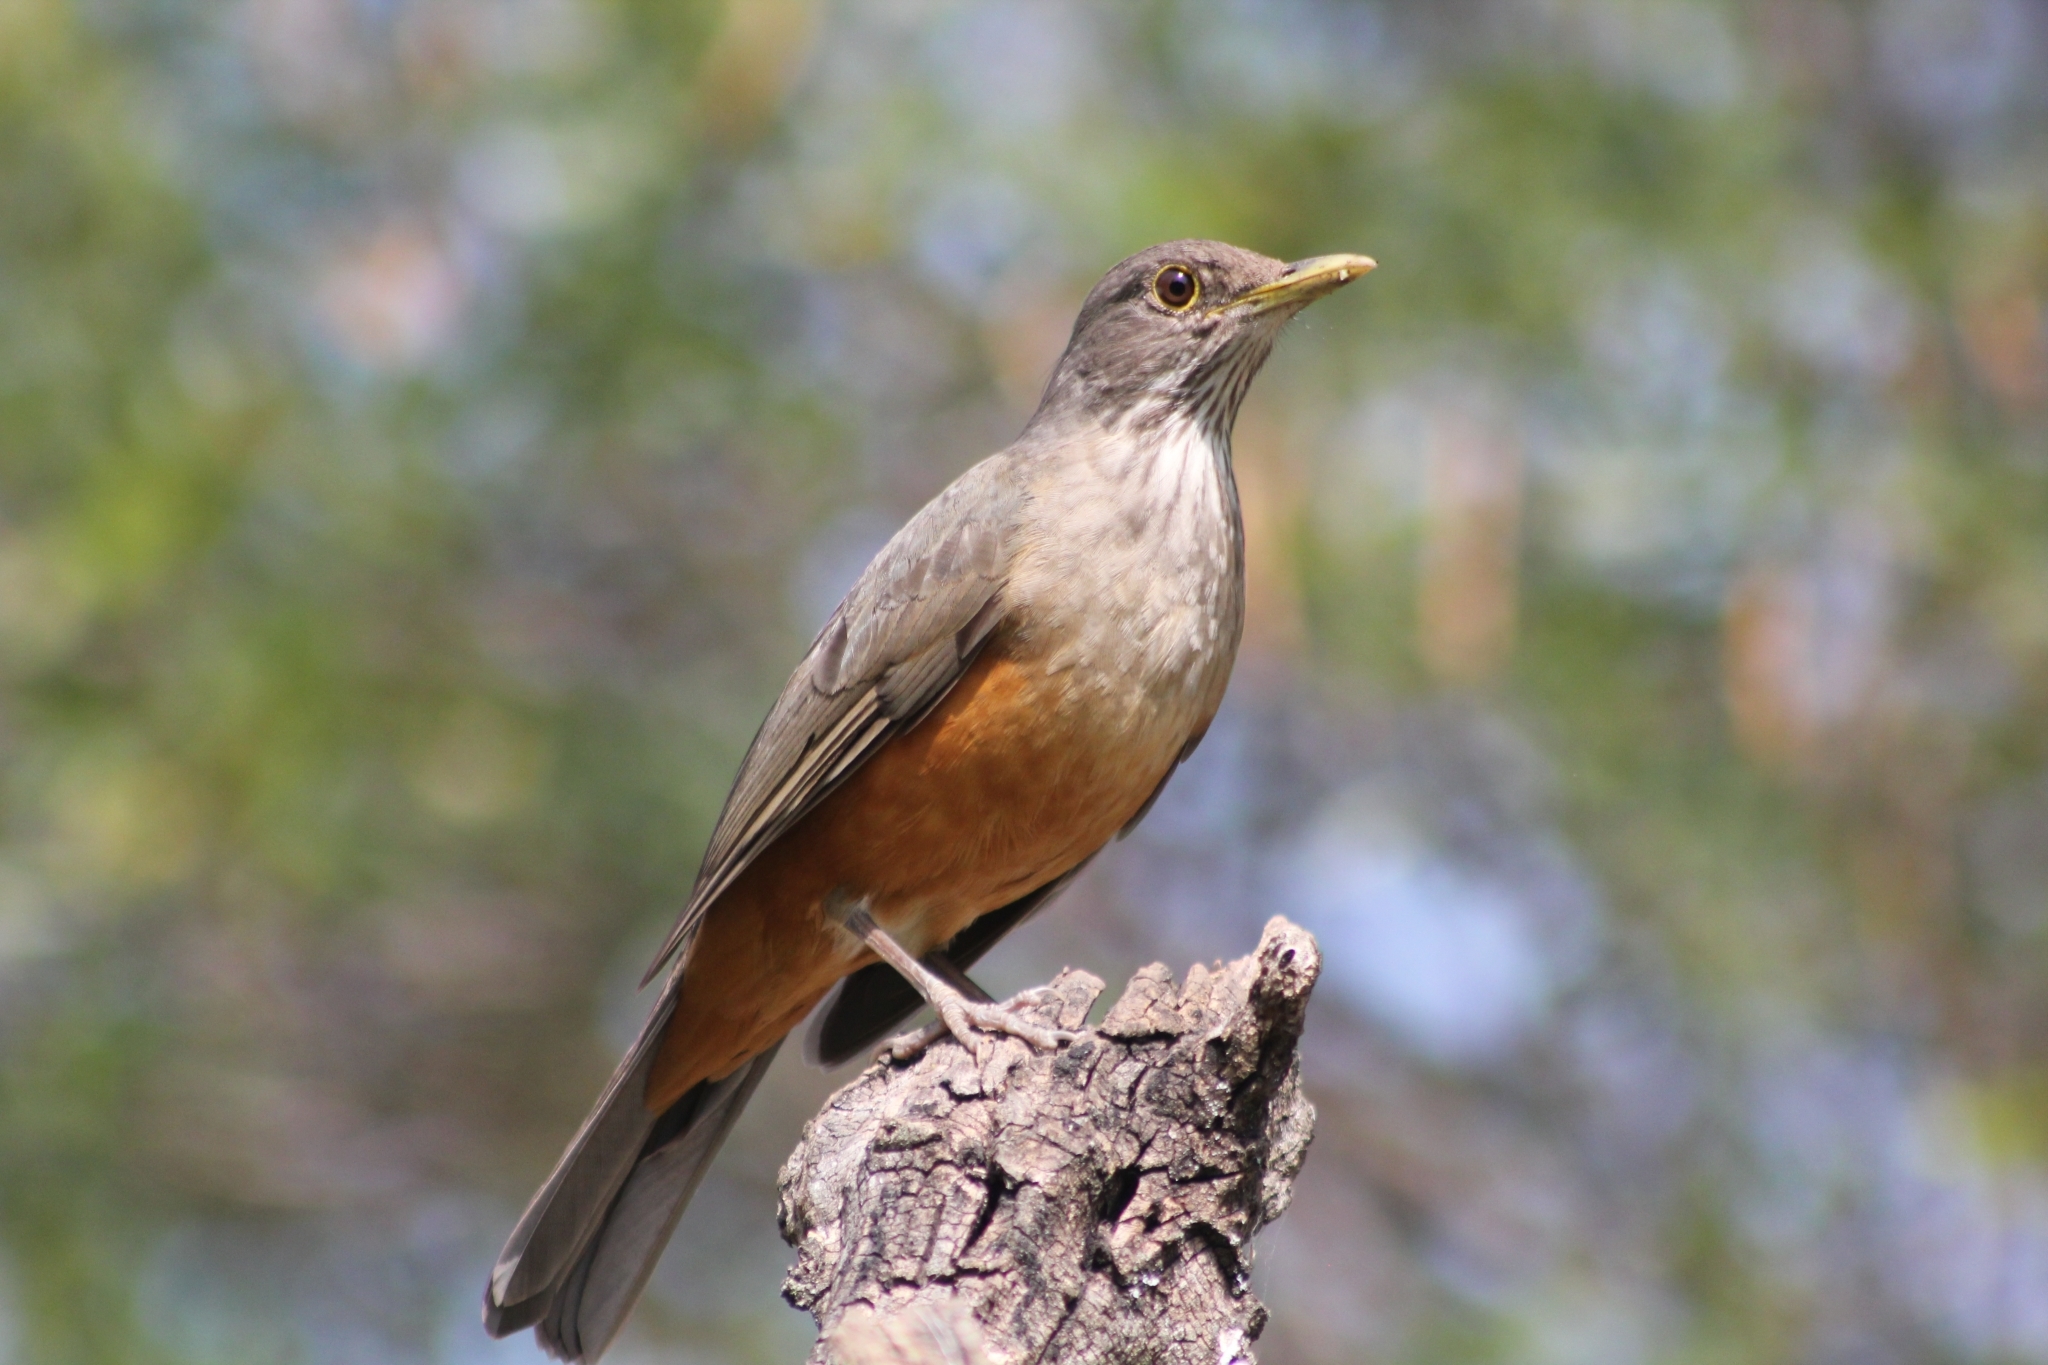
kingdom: Animalia
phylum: Chordata
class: Aves
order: Passeriformes
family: Turdidae
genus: Turdus
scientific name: Turdus rufiventris
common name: Rufous-bellied thrush
